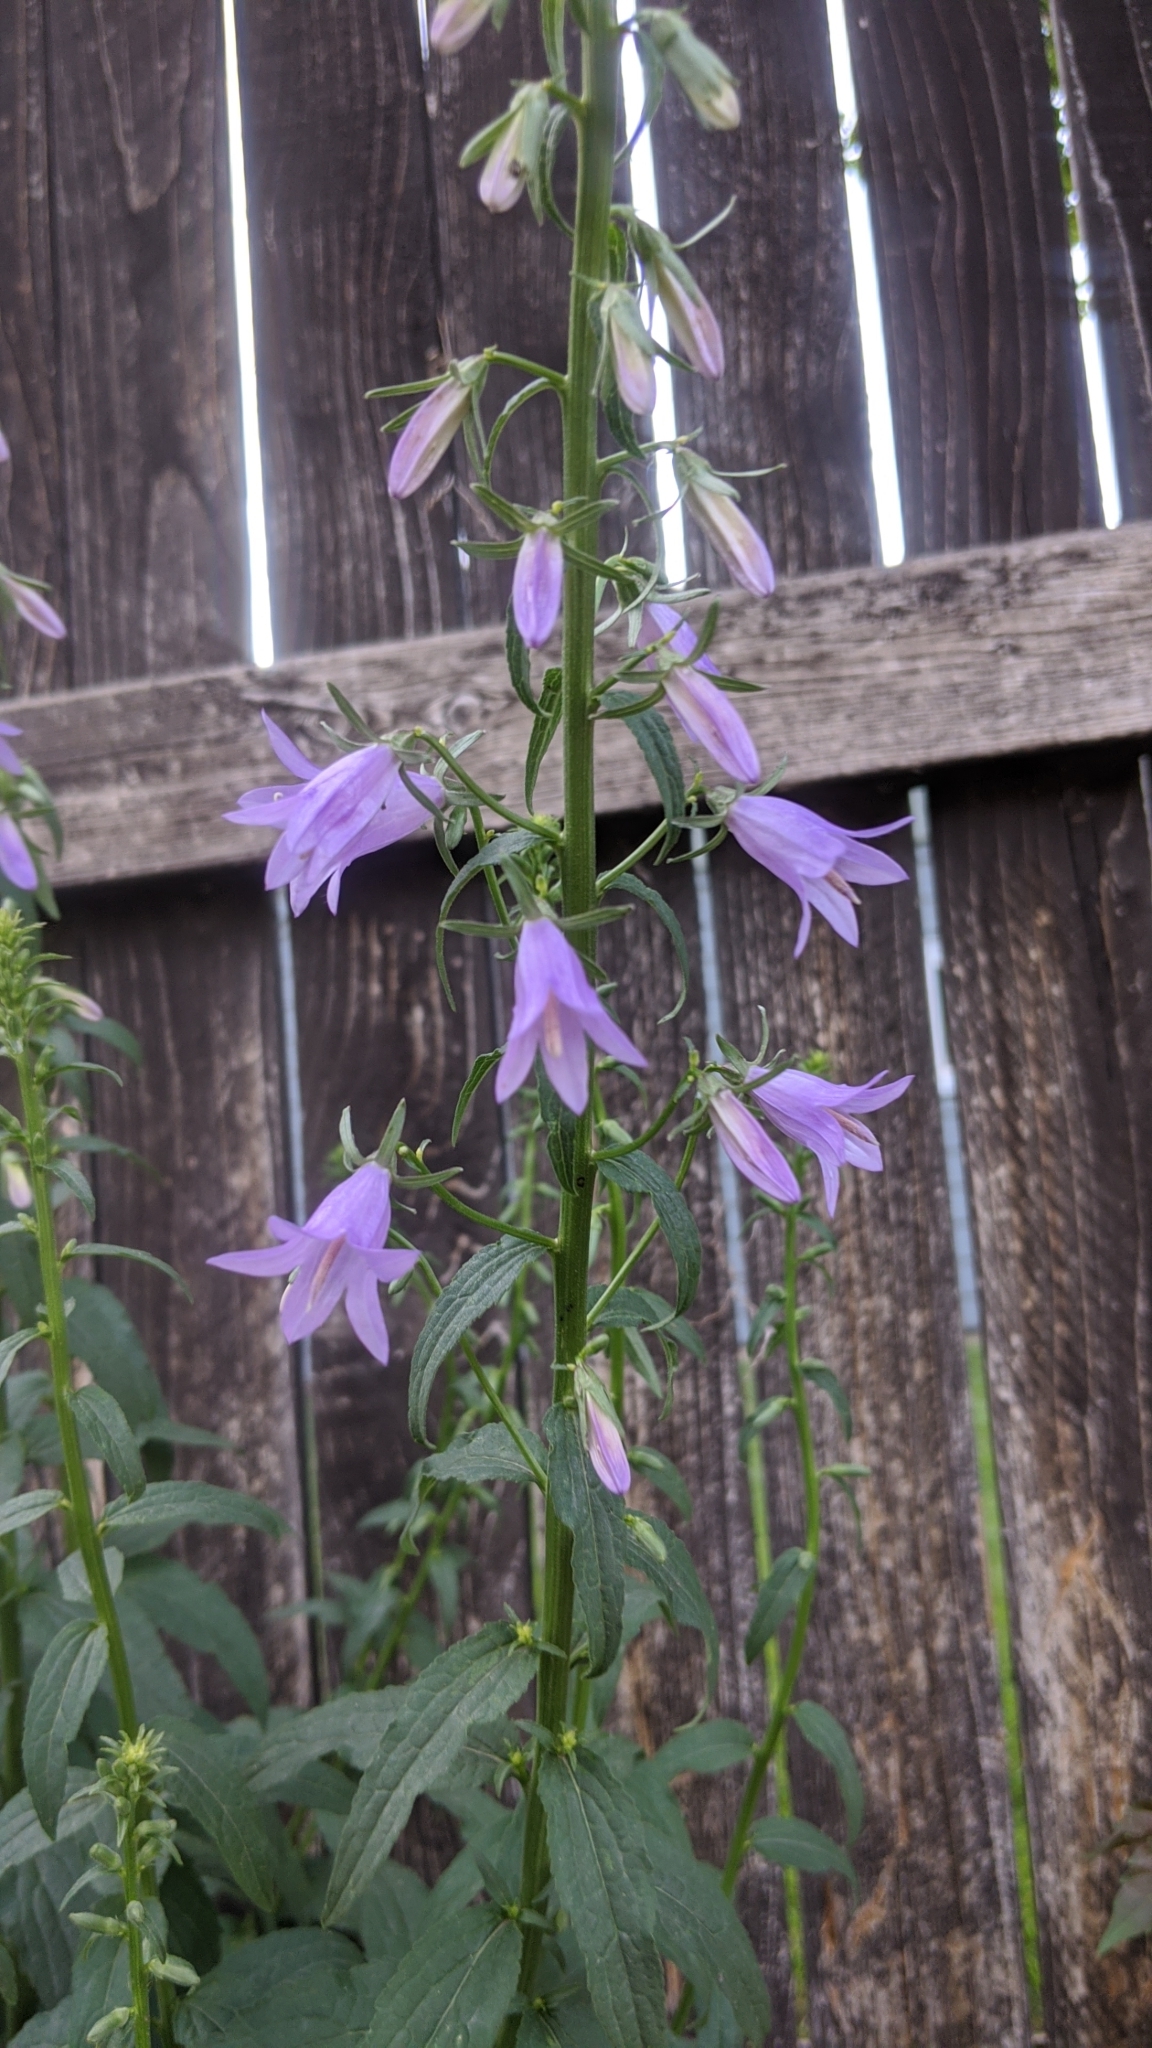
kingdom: Plantae
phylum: Tracheophyta
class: Magnoliopsida
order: Asterales
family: Campanulaceae
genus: Campanula
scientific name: Campanula rapunculoides
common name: Creeping bellflower
